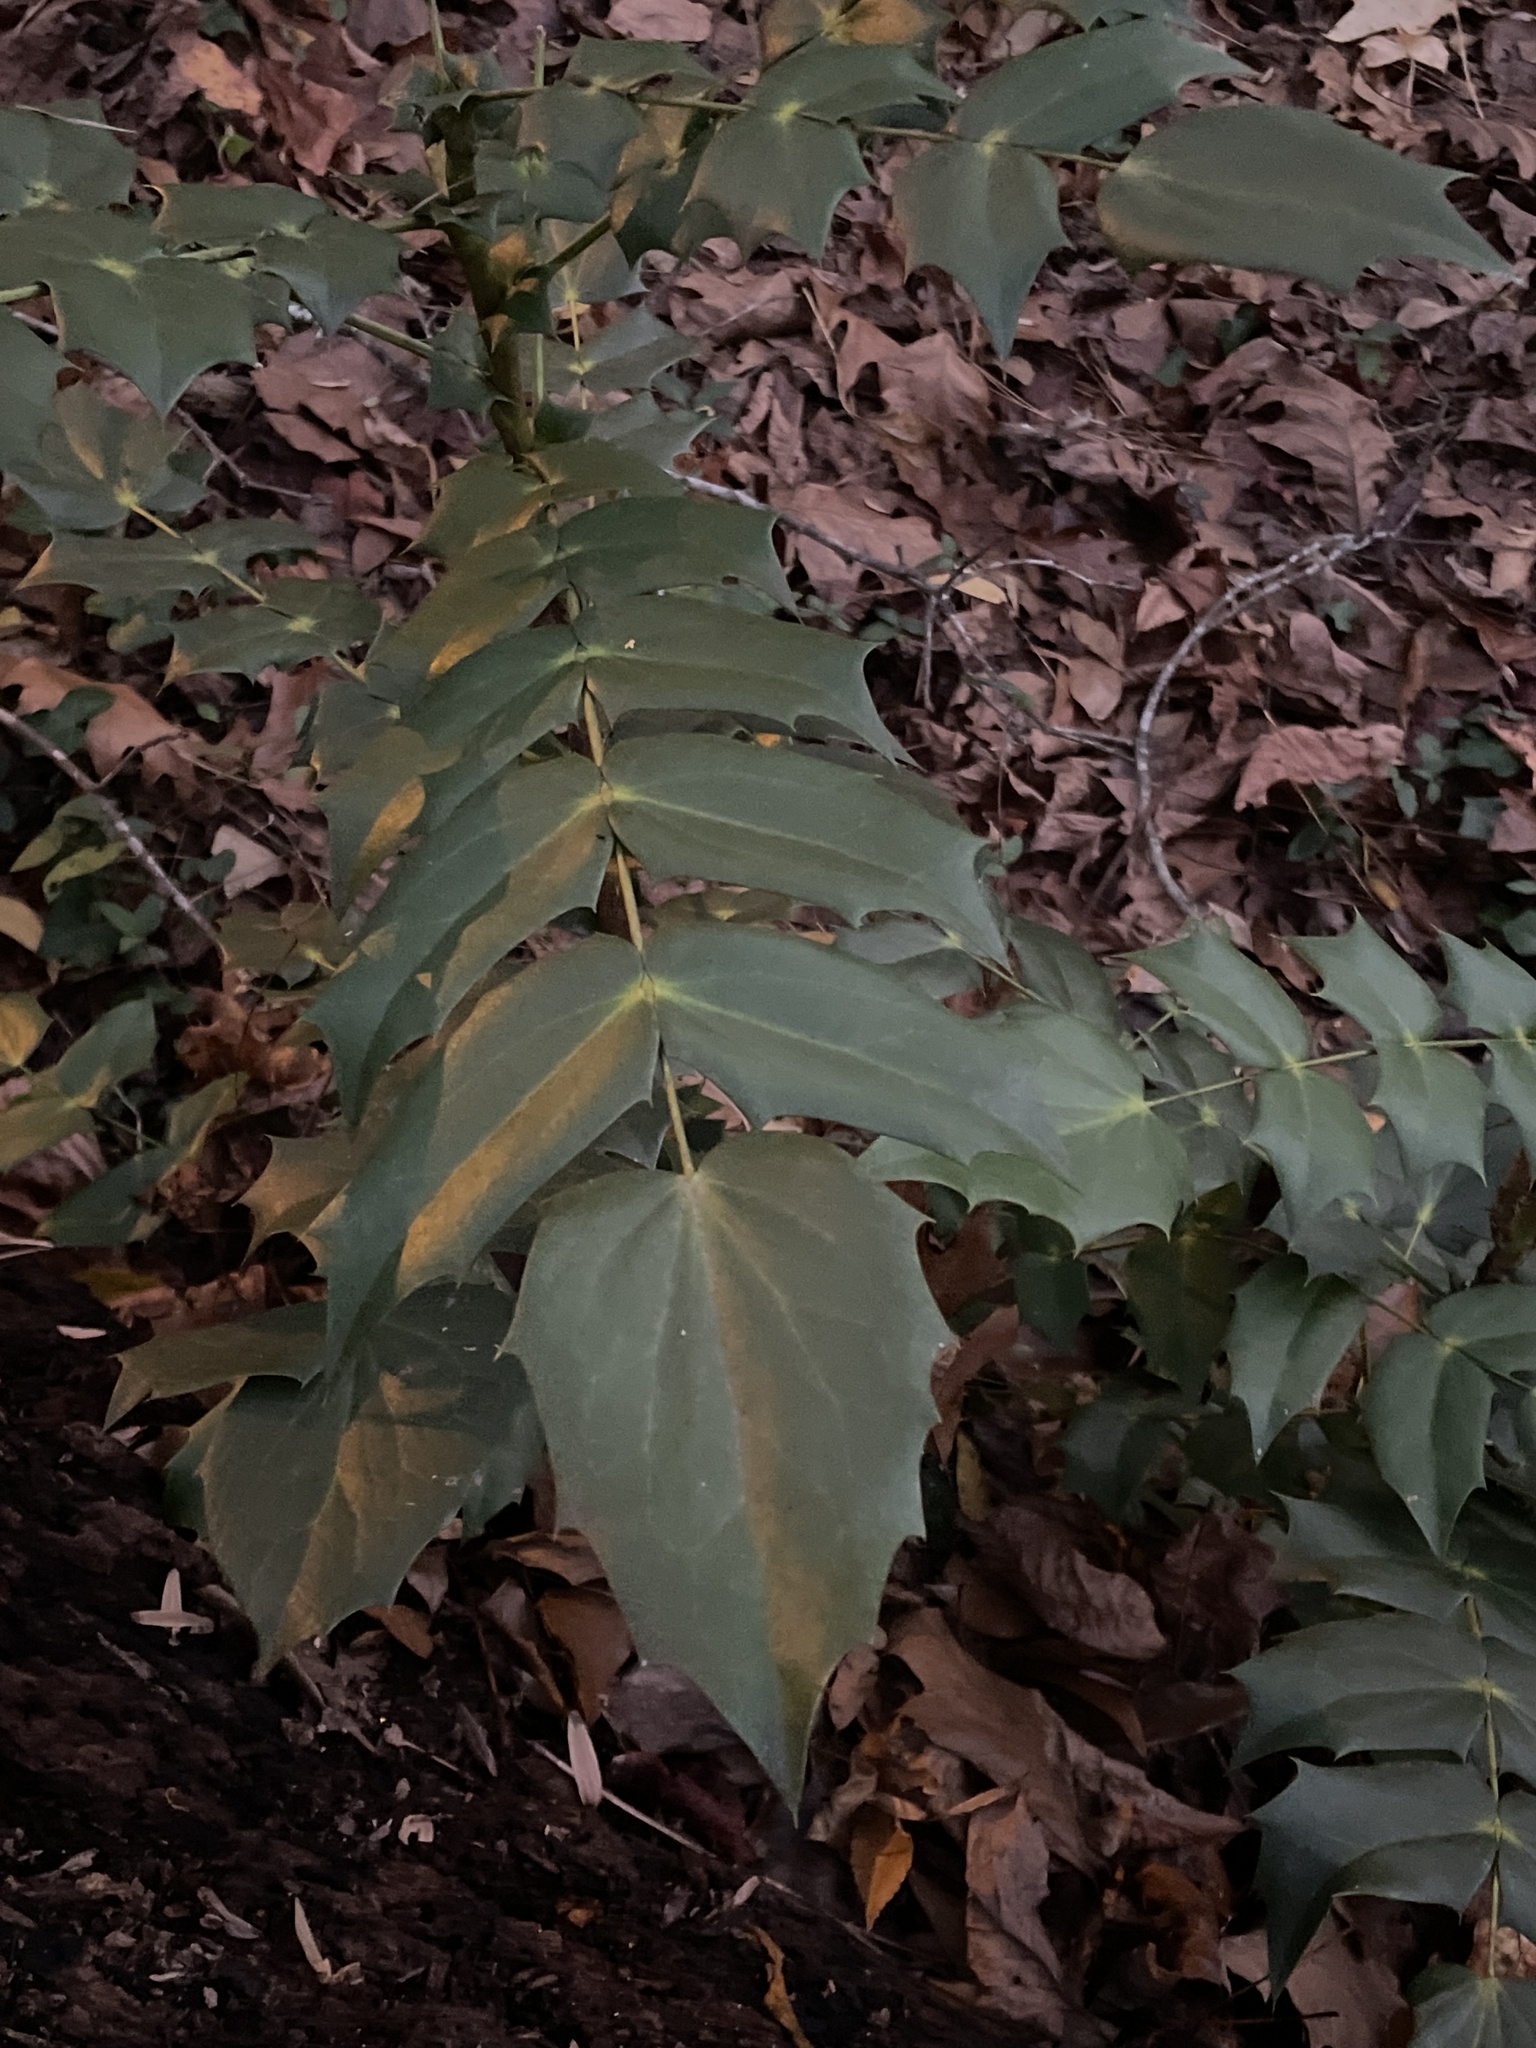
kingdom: Plantae
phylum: Tracheophyta
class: Magnoliopsida
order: Ranunculales
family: Berberidaceae
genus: Mahonia
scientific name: Mahonia bealei
